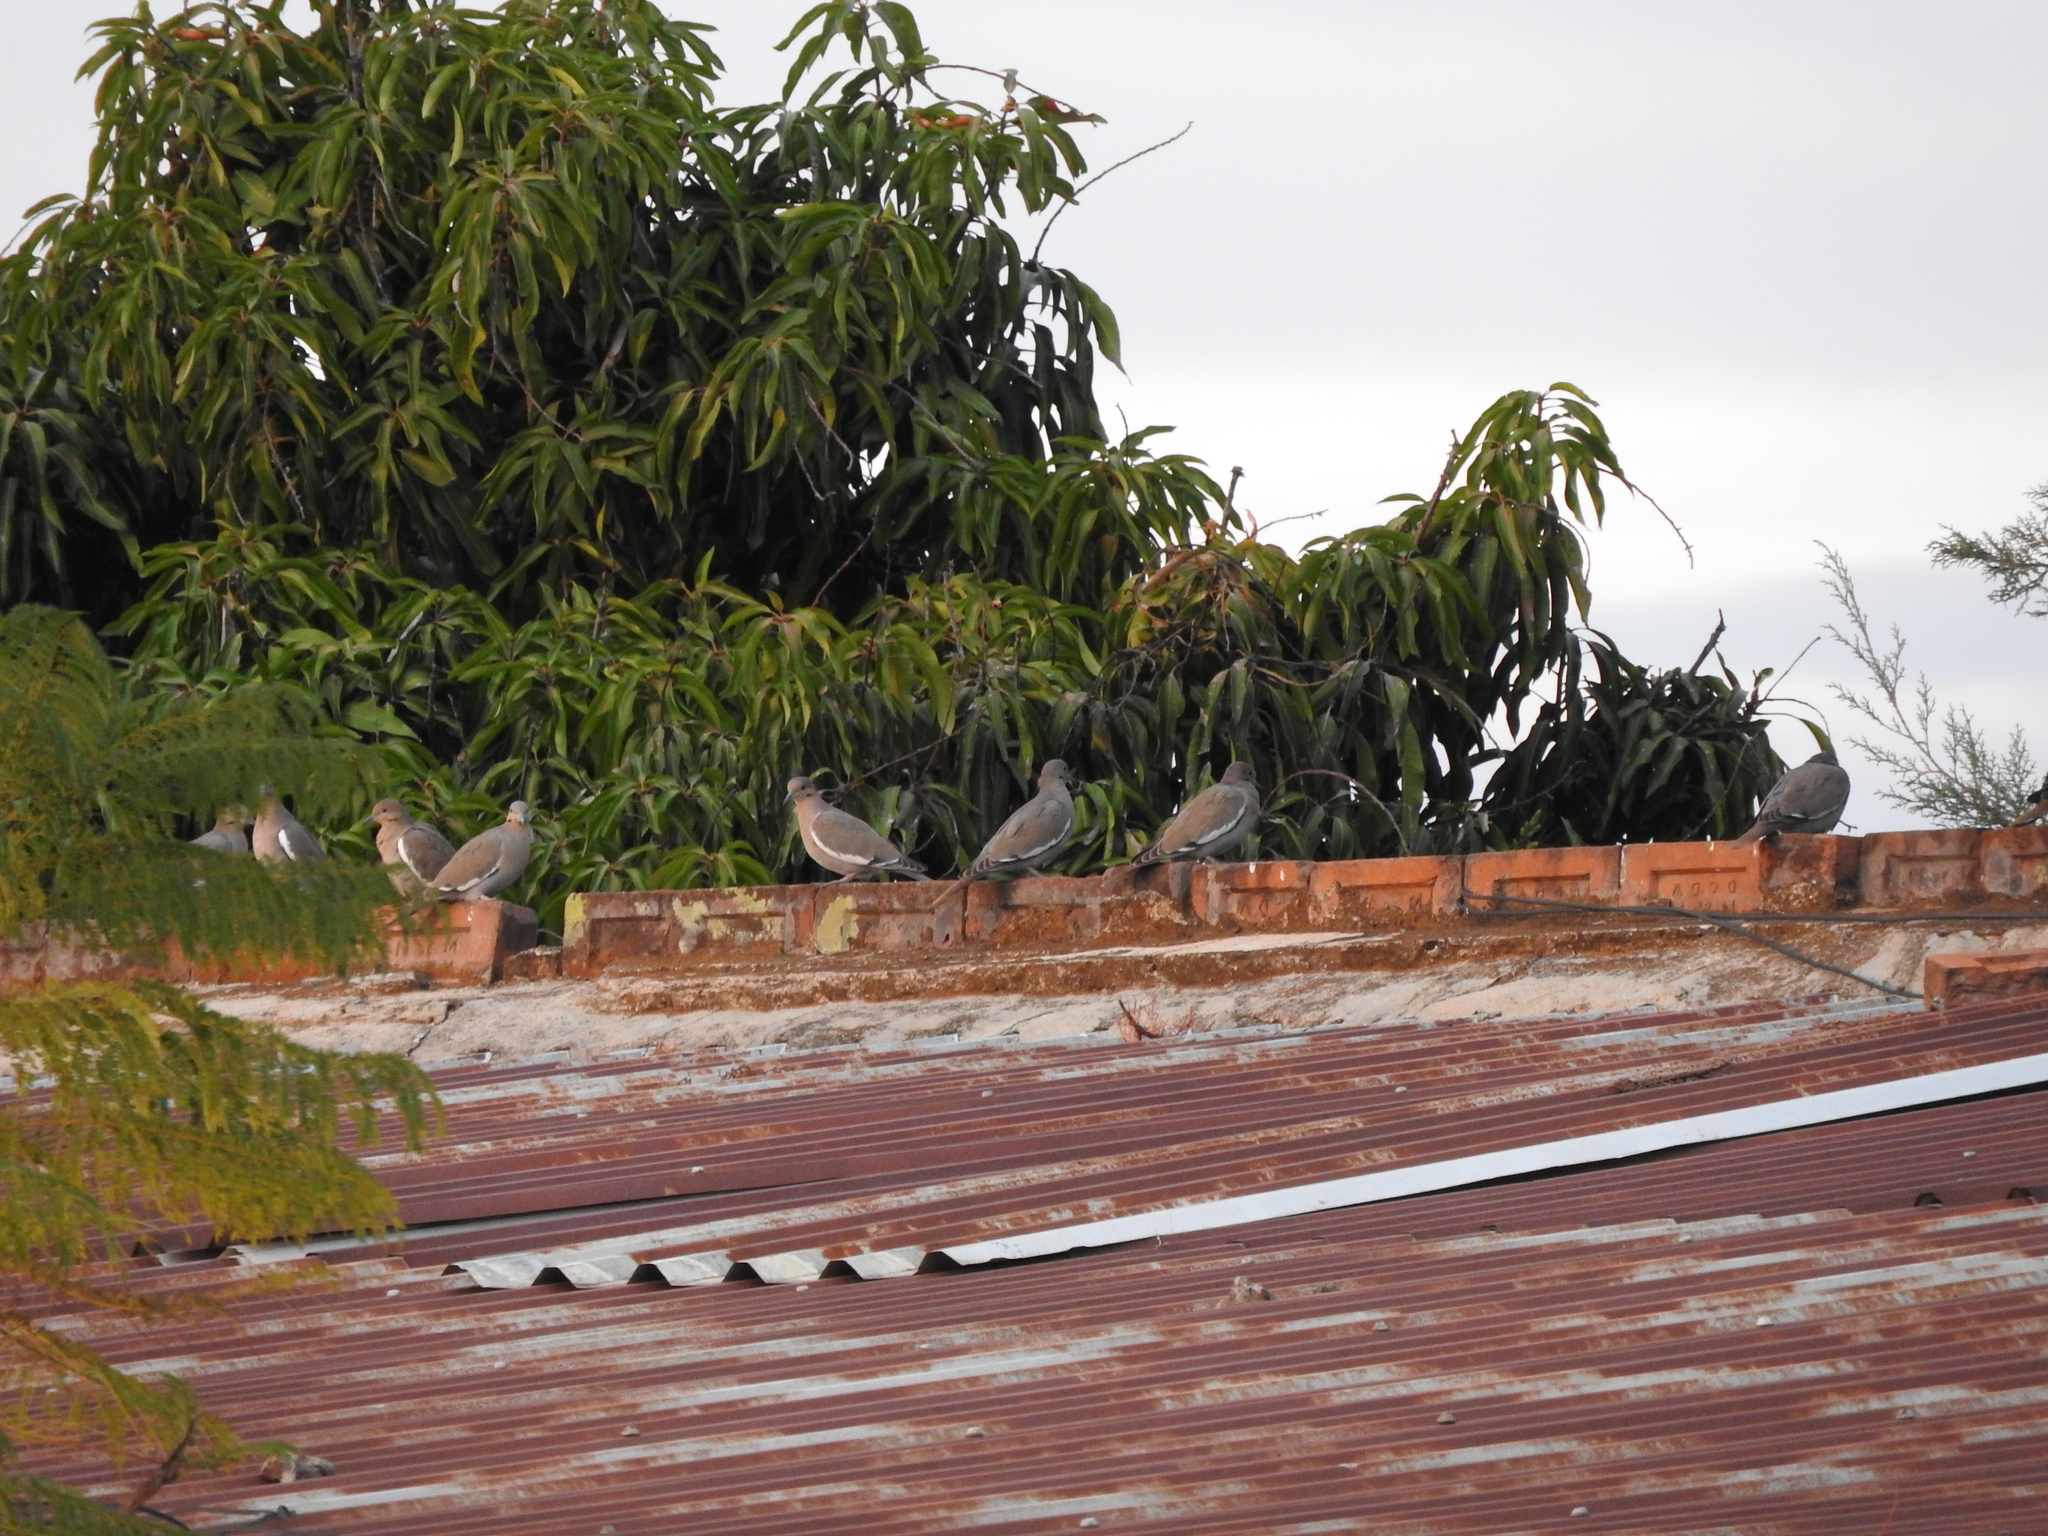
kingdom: Animalia
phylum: Chordata
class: Aves
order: Columbiformes
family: Columbidae
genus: Zenaida
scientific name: Zenaida asiatica
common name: White-winged dove
